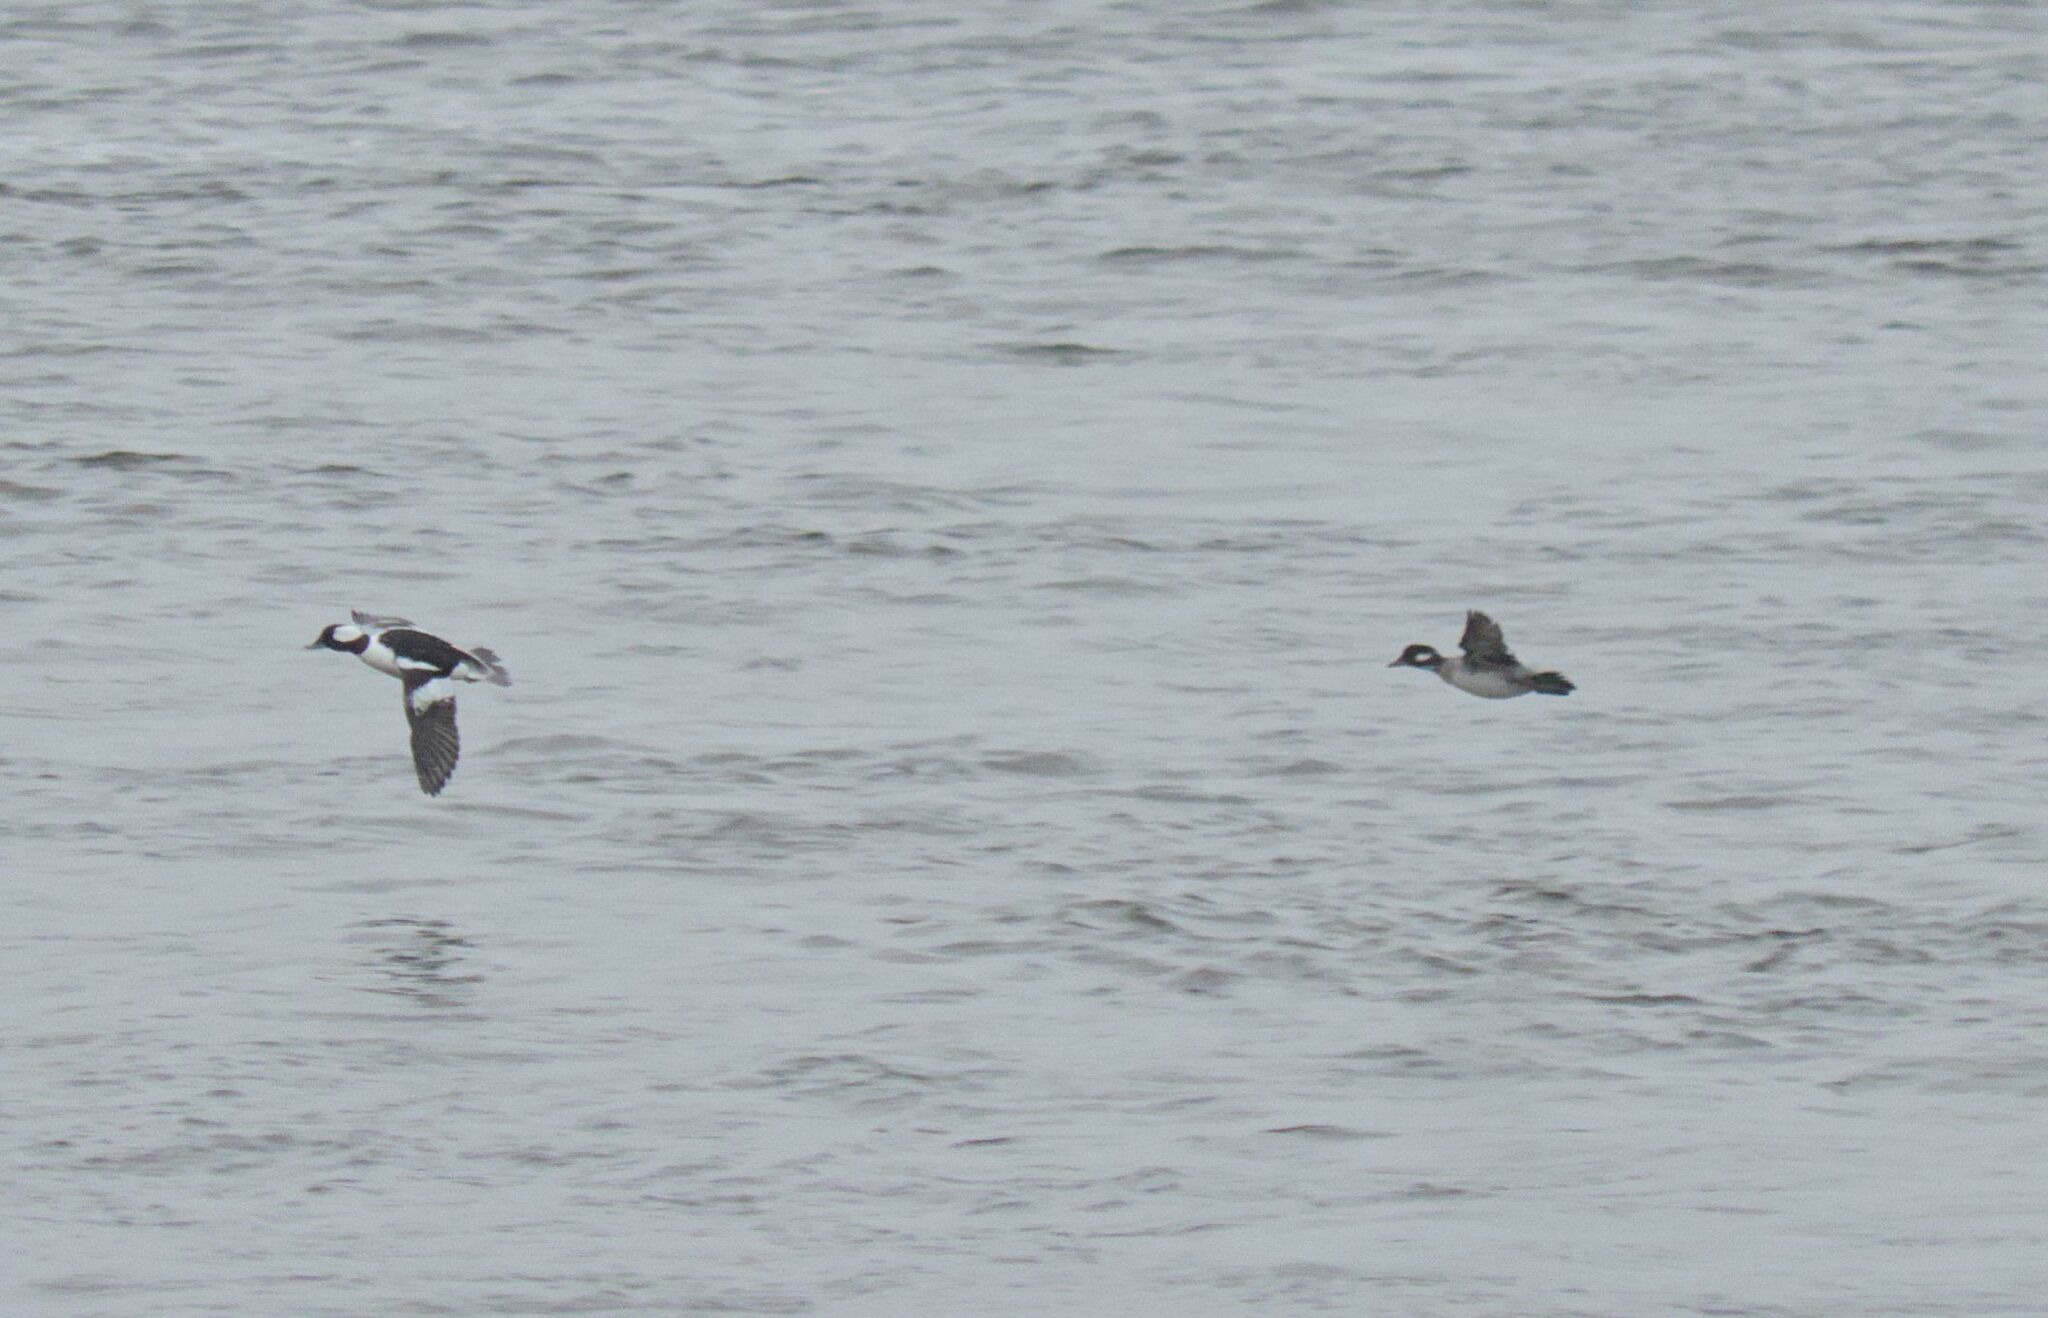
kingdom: Animalia
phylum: Chordata
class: Aves
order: Anseriformes
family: Anatidae
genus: Bucephala
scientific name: Bucephala albeola
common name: Bufflehead
